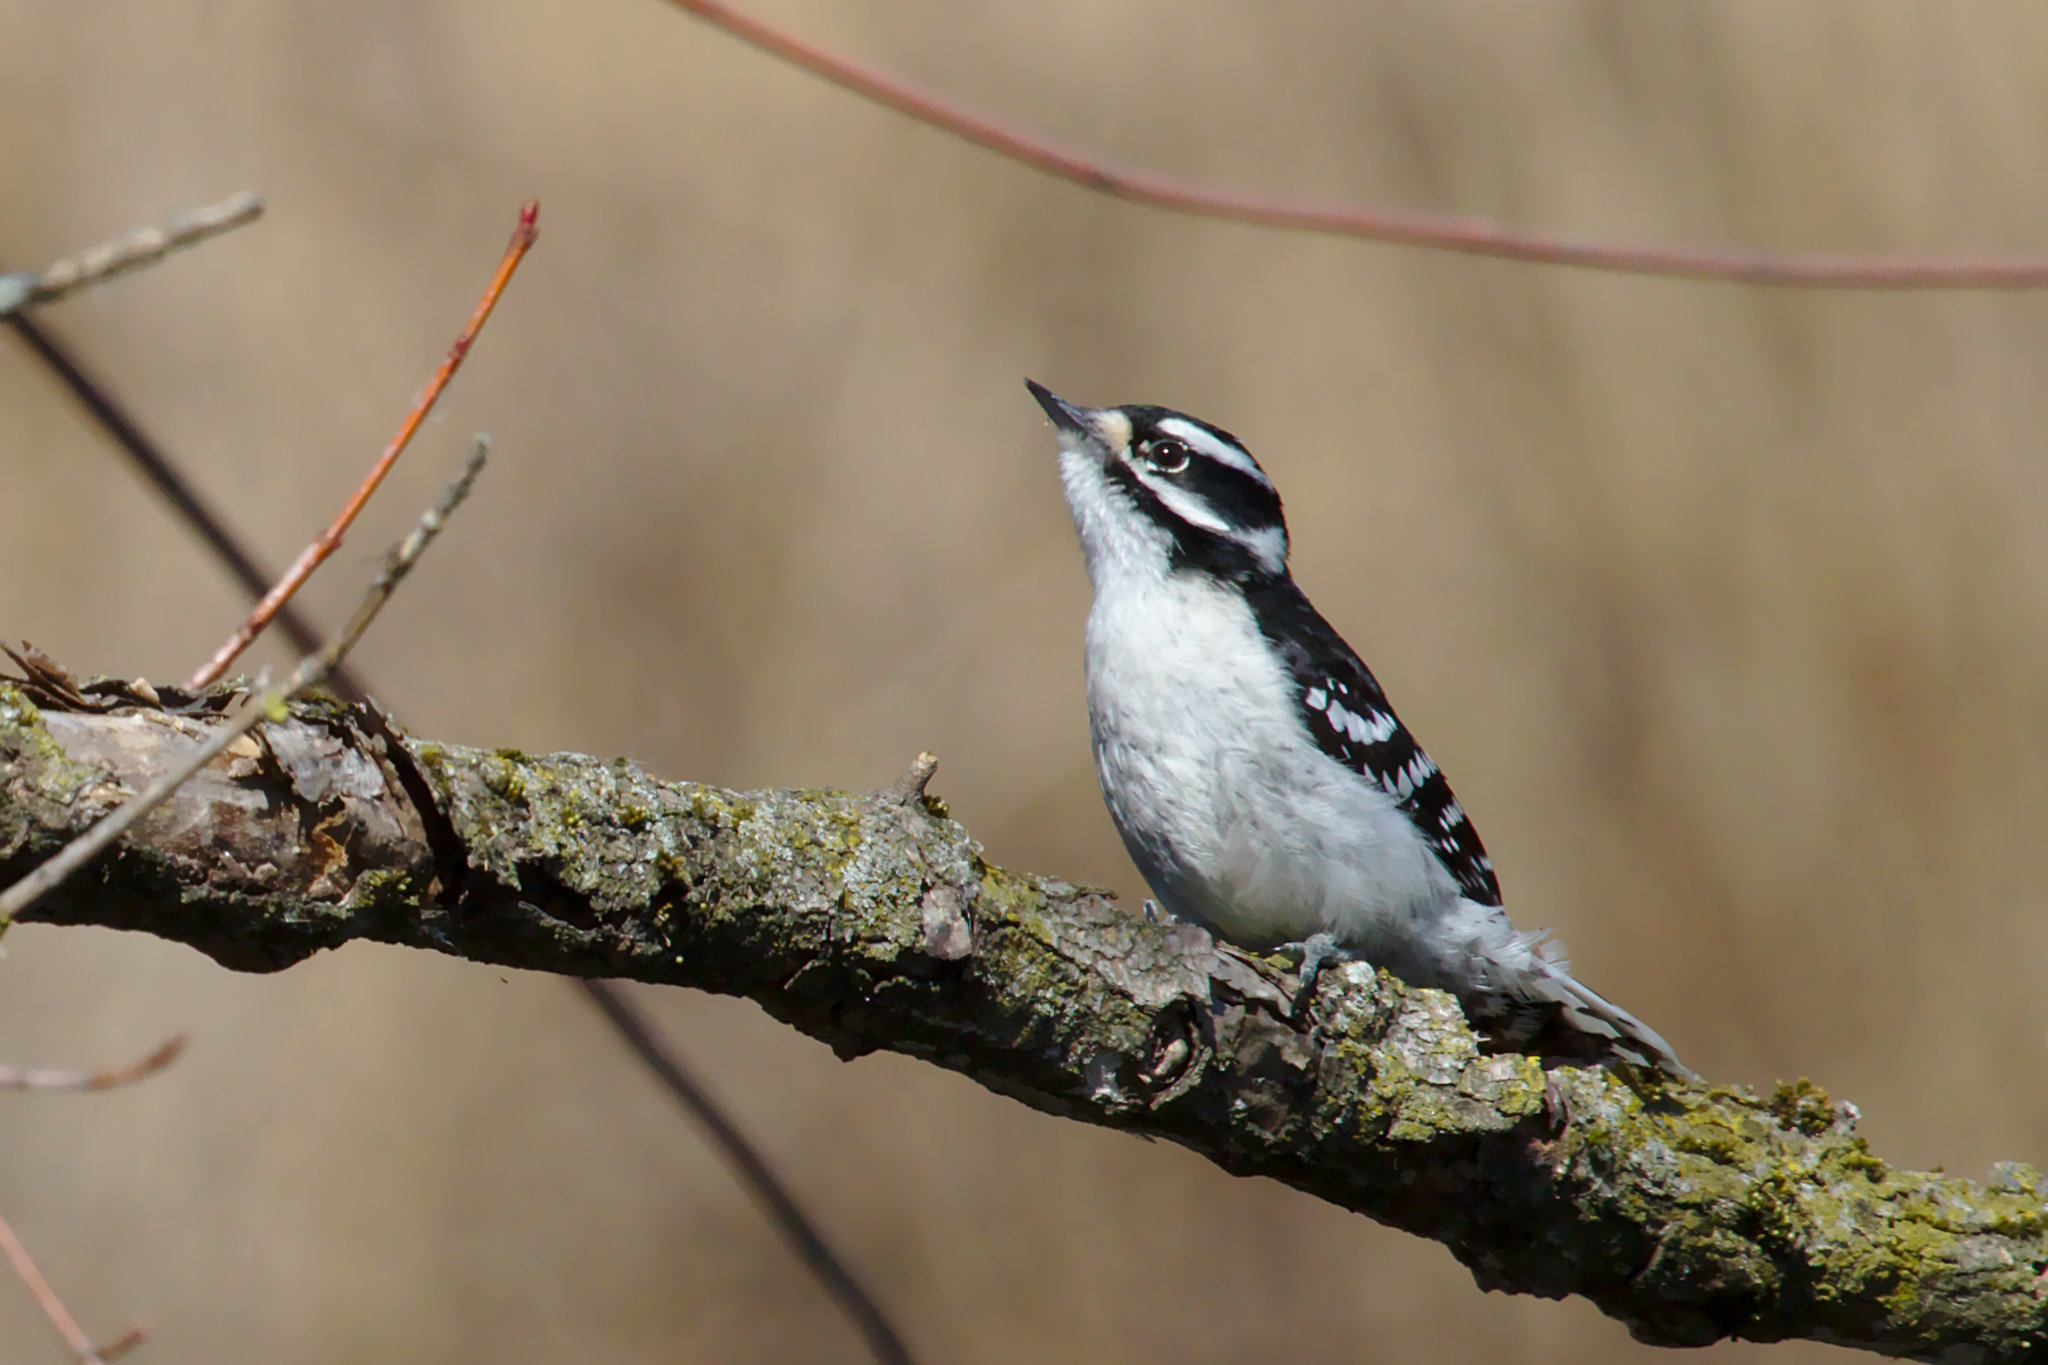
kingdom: Animalia
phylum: Chordata
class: Aves
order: Piciformes
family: Picidae
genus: Dryobates
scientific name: Dryobates pubescens
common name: Downy woodpecker
